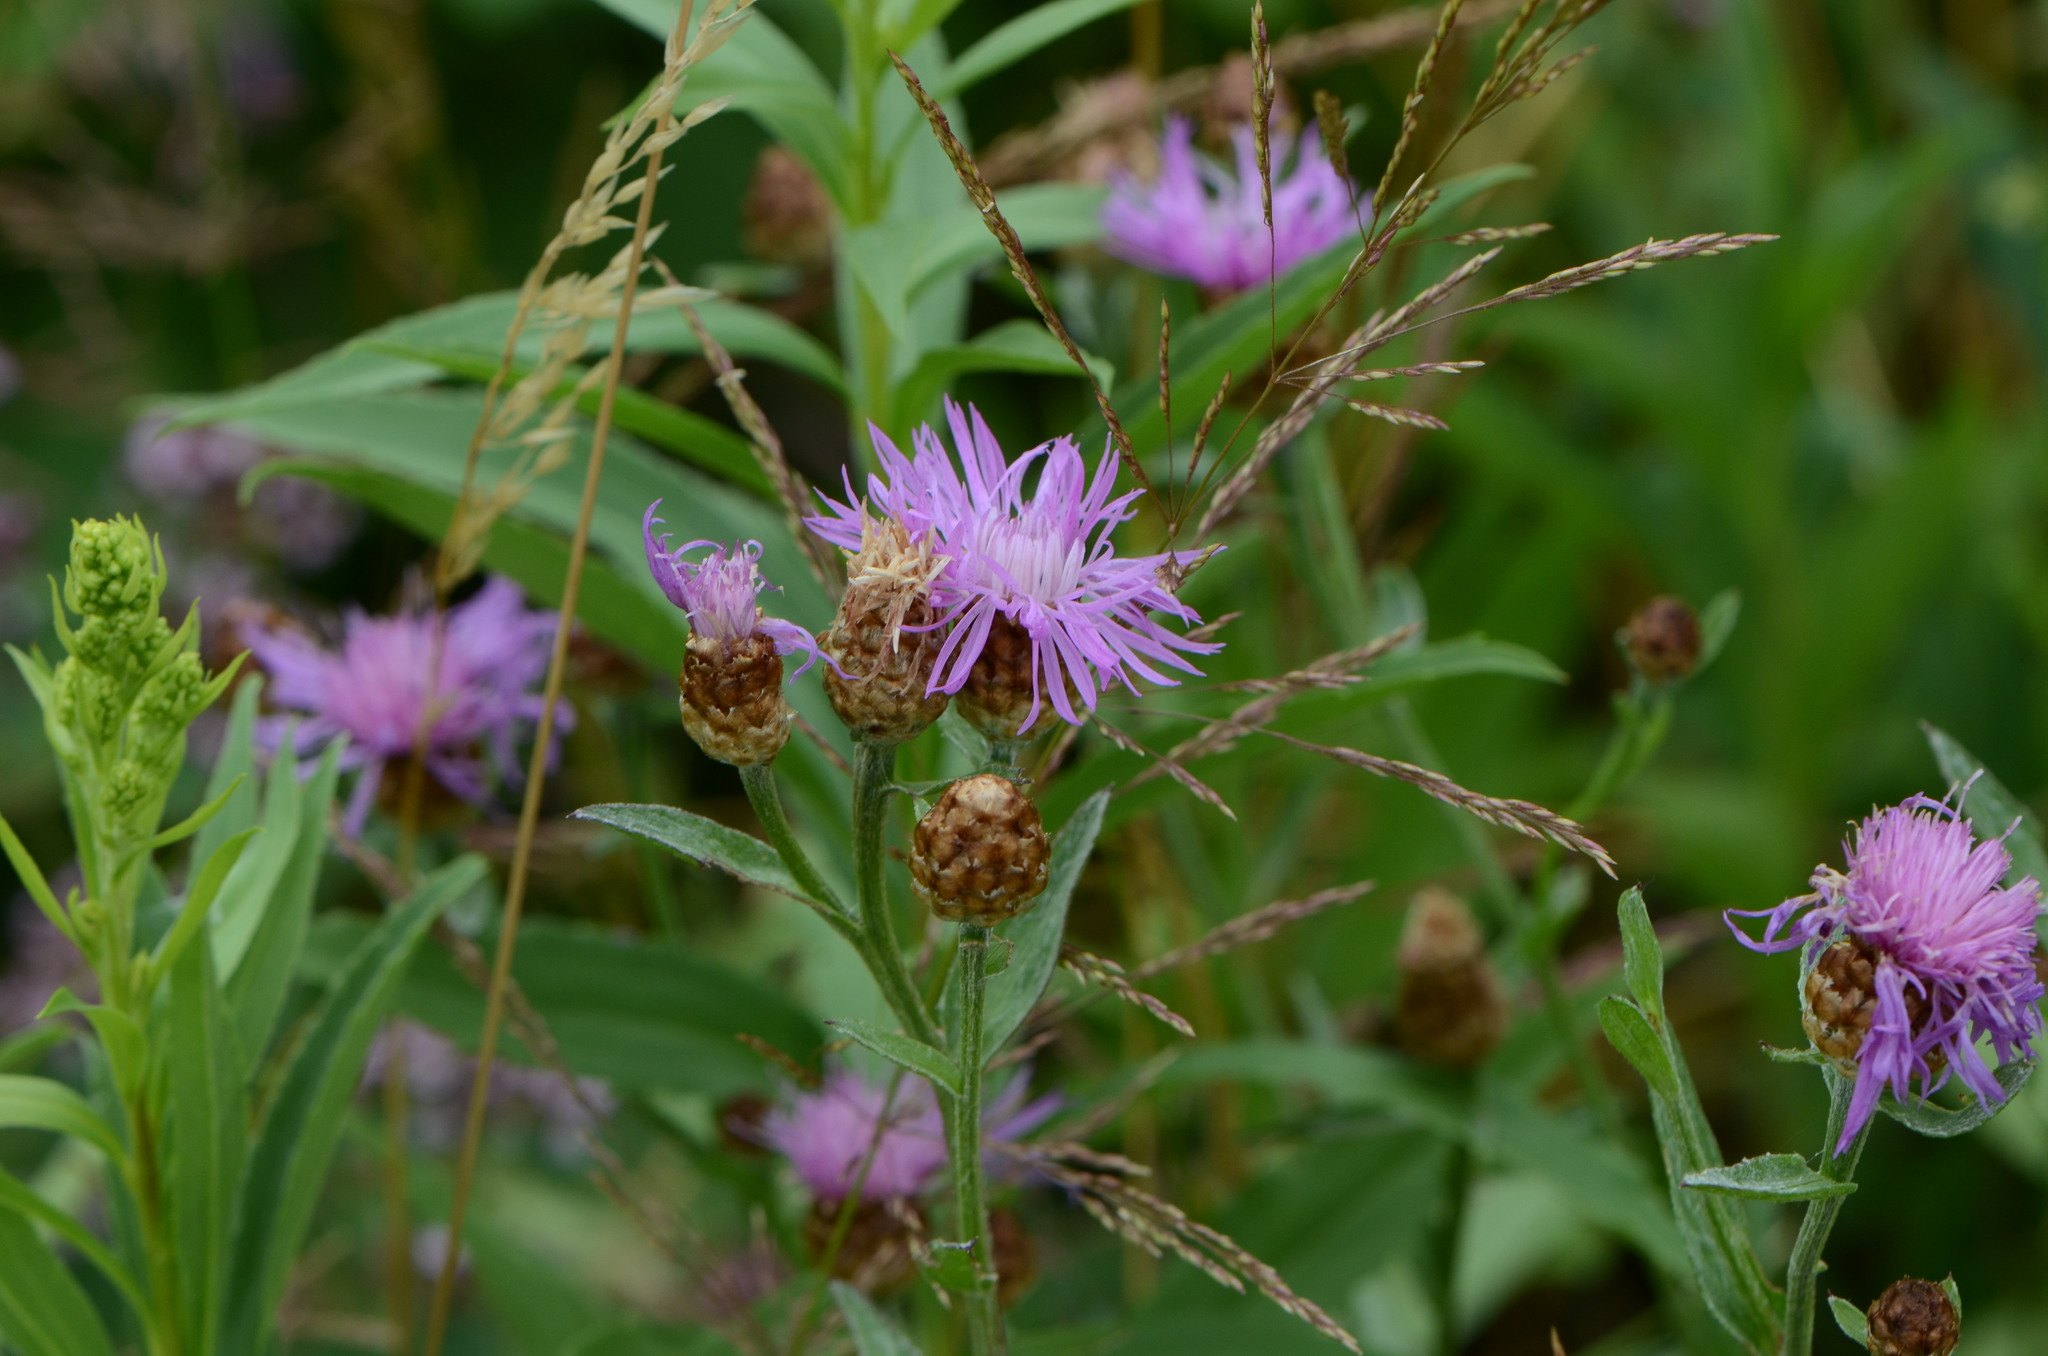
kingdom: Plantae
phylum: Tracheophyta
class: Magnoliopsida
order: Asterales
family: Asteraceae
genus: Centaurea
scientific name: Centaurea jacea
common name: Brown knapweed
